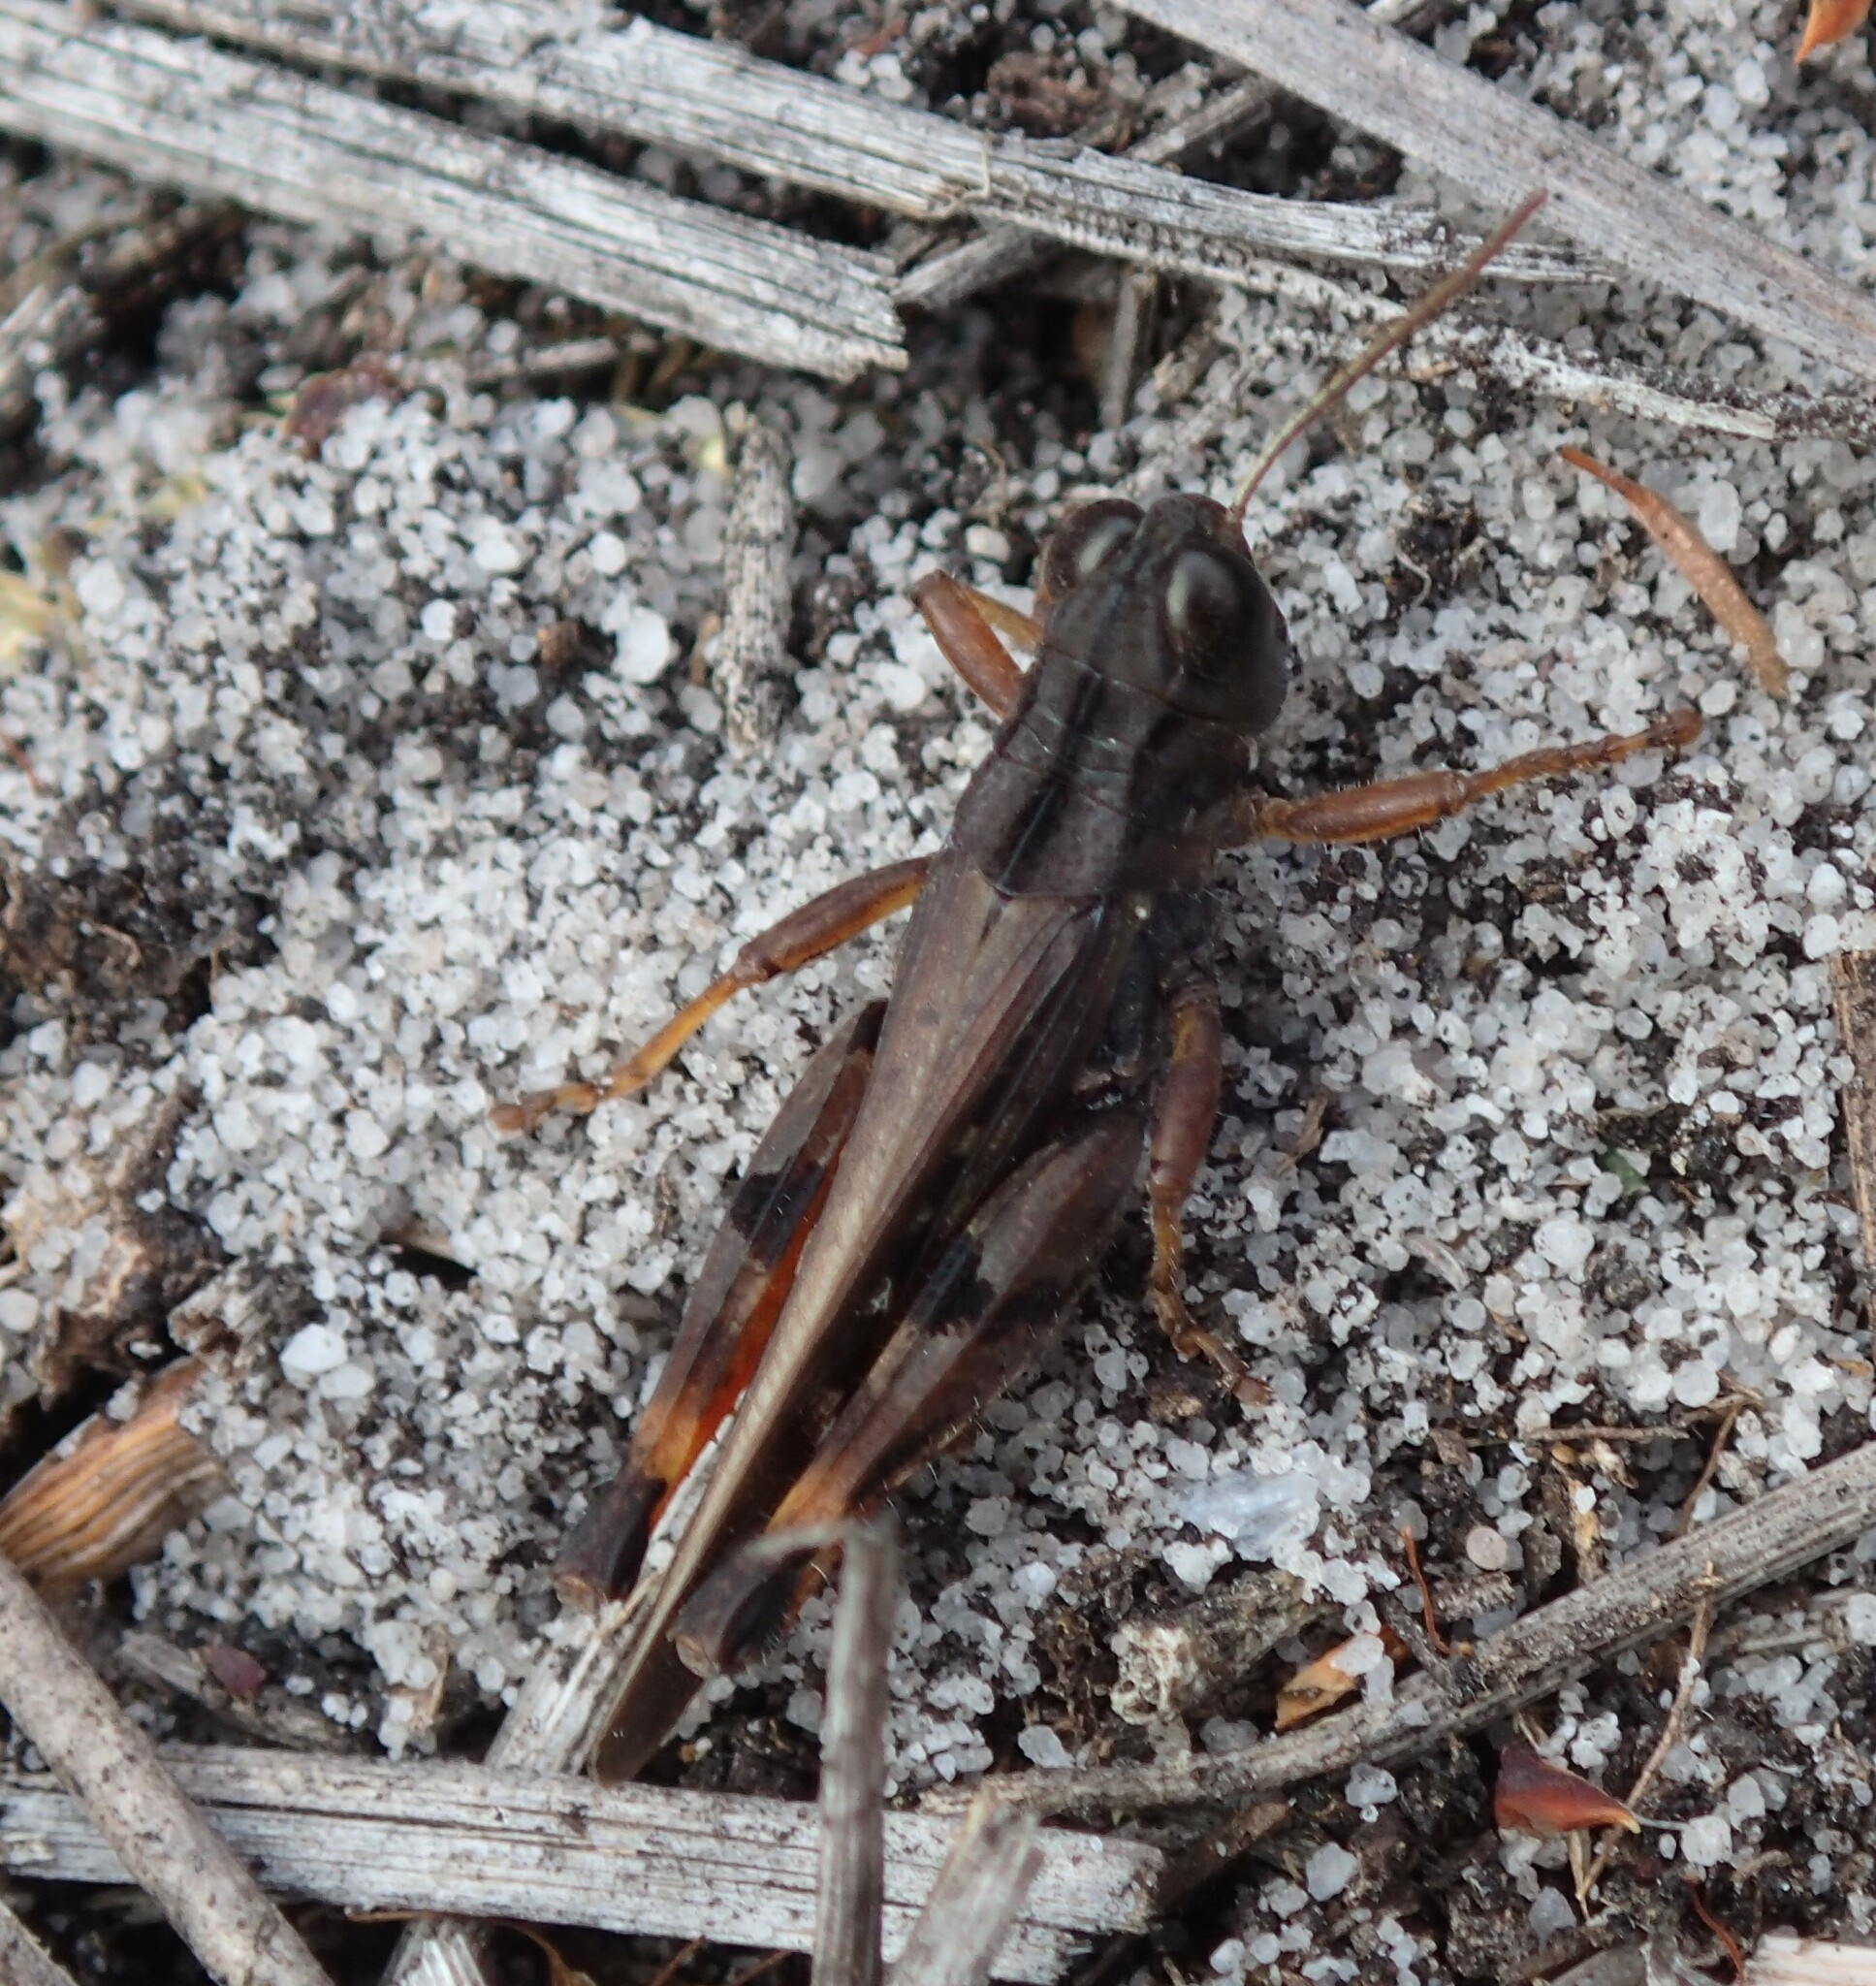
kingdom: Animalia
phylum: Arthropoda
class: Insecta
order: Orthoptera
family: Acrididae
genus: Exarna
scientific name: Exarna includens
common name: Red-legged exarna
